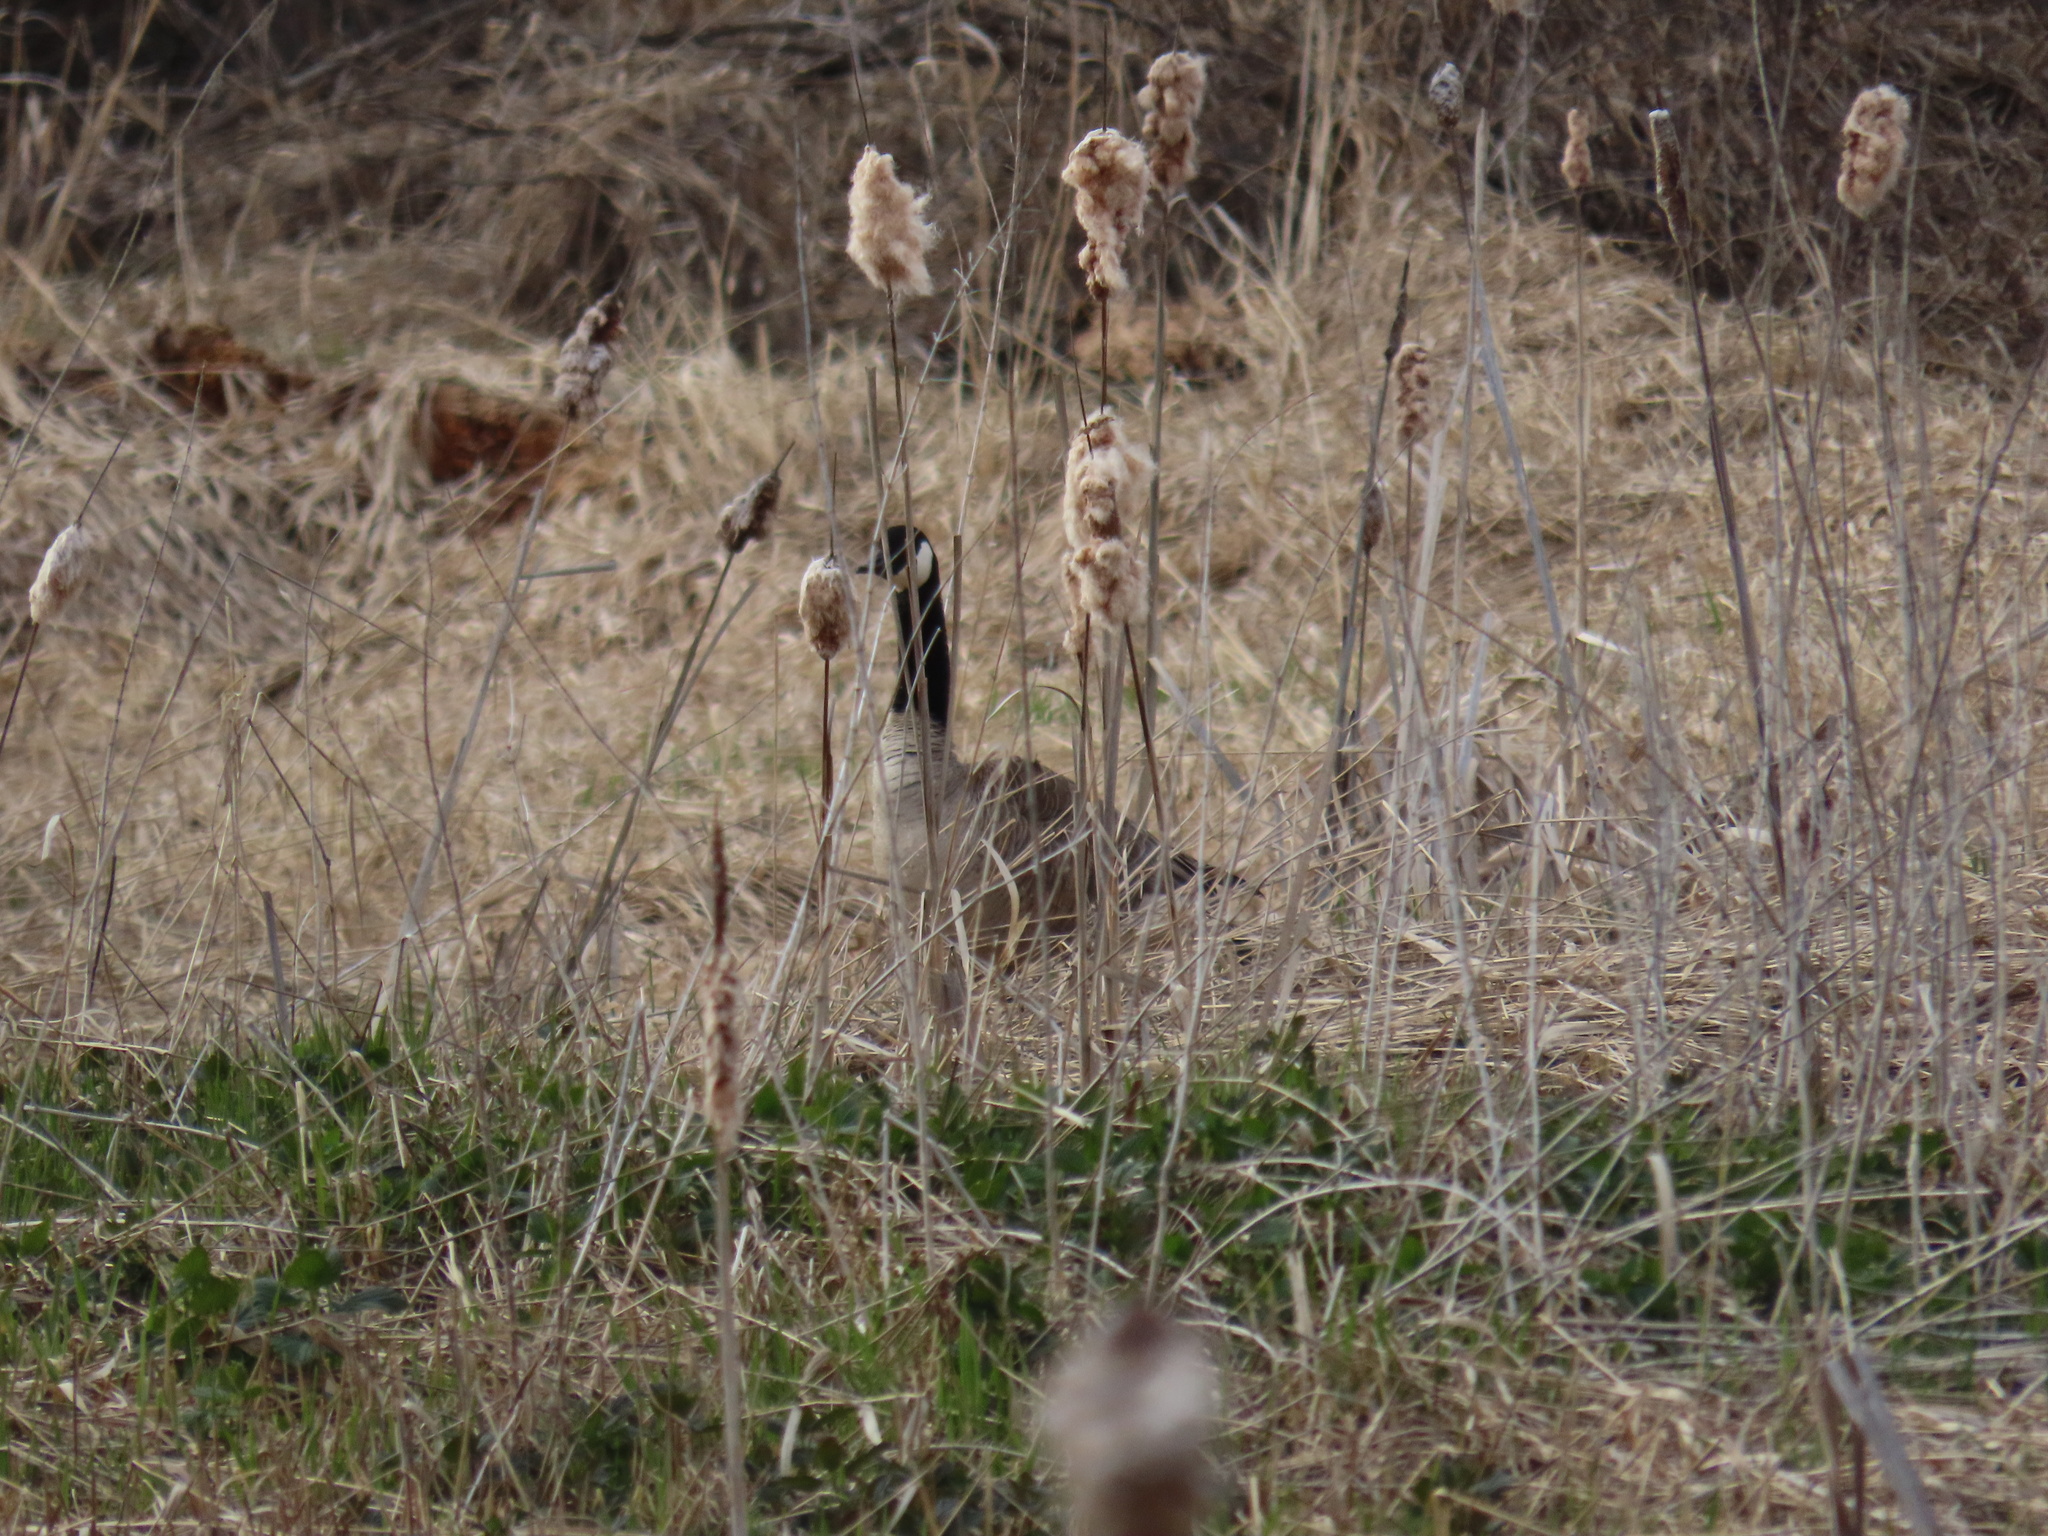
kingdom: Animalia
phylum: Chordata
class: Aves
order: Anseriformes
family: Anatidae
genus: Branta
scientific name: Branta canadensis
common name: Canada goose
